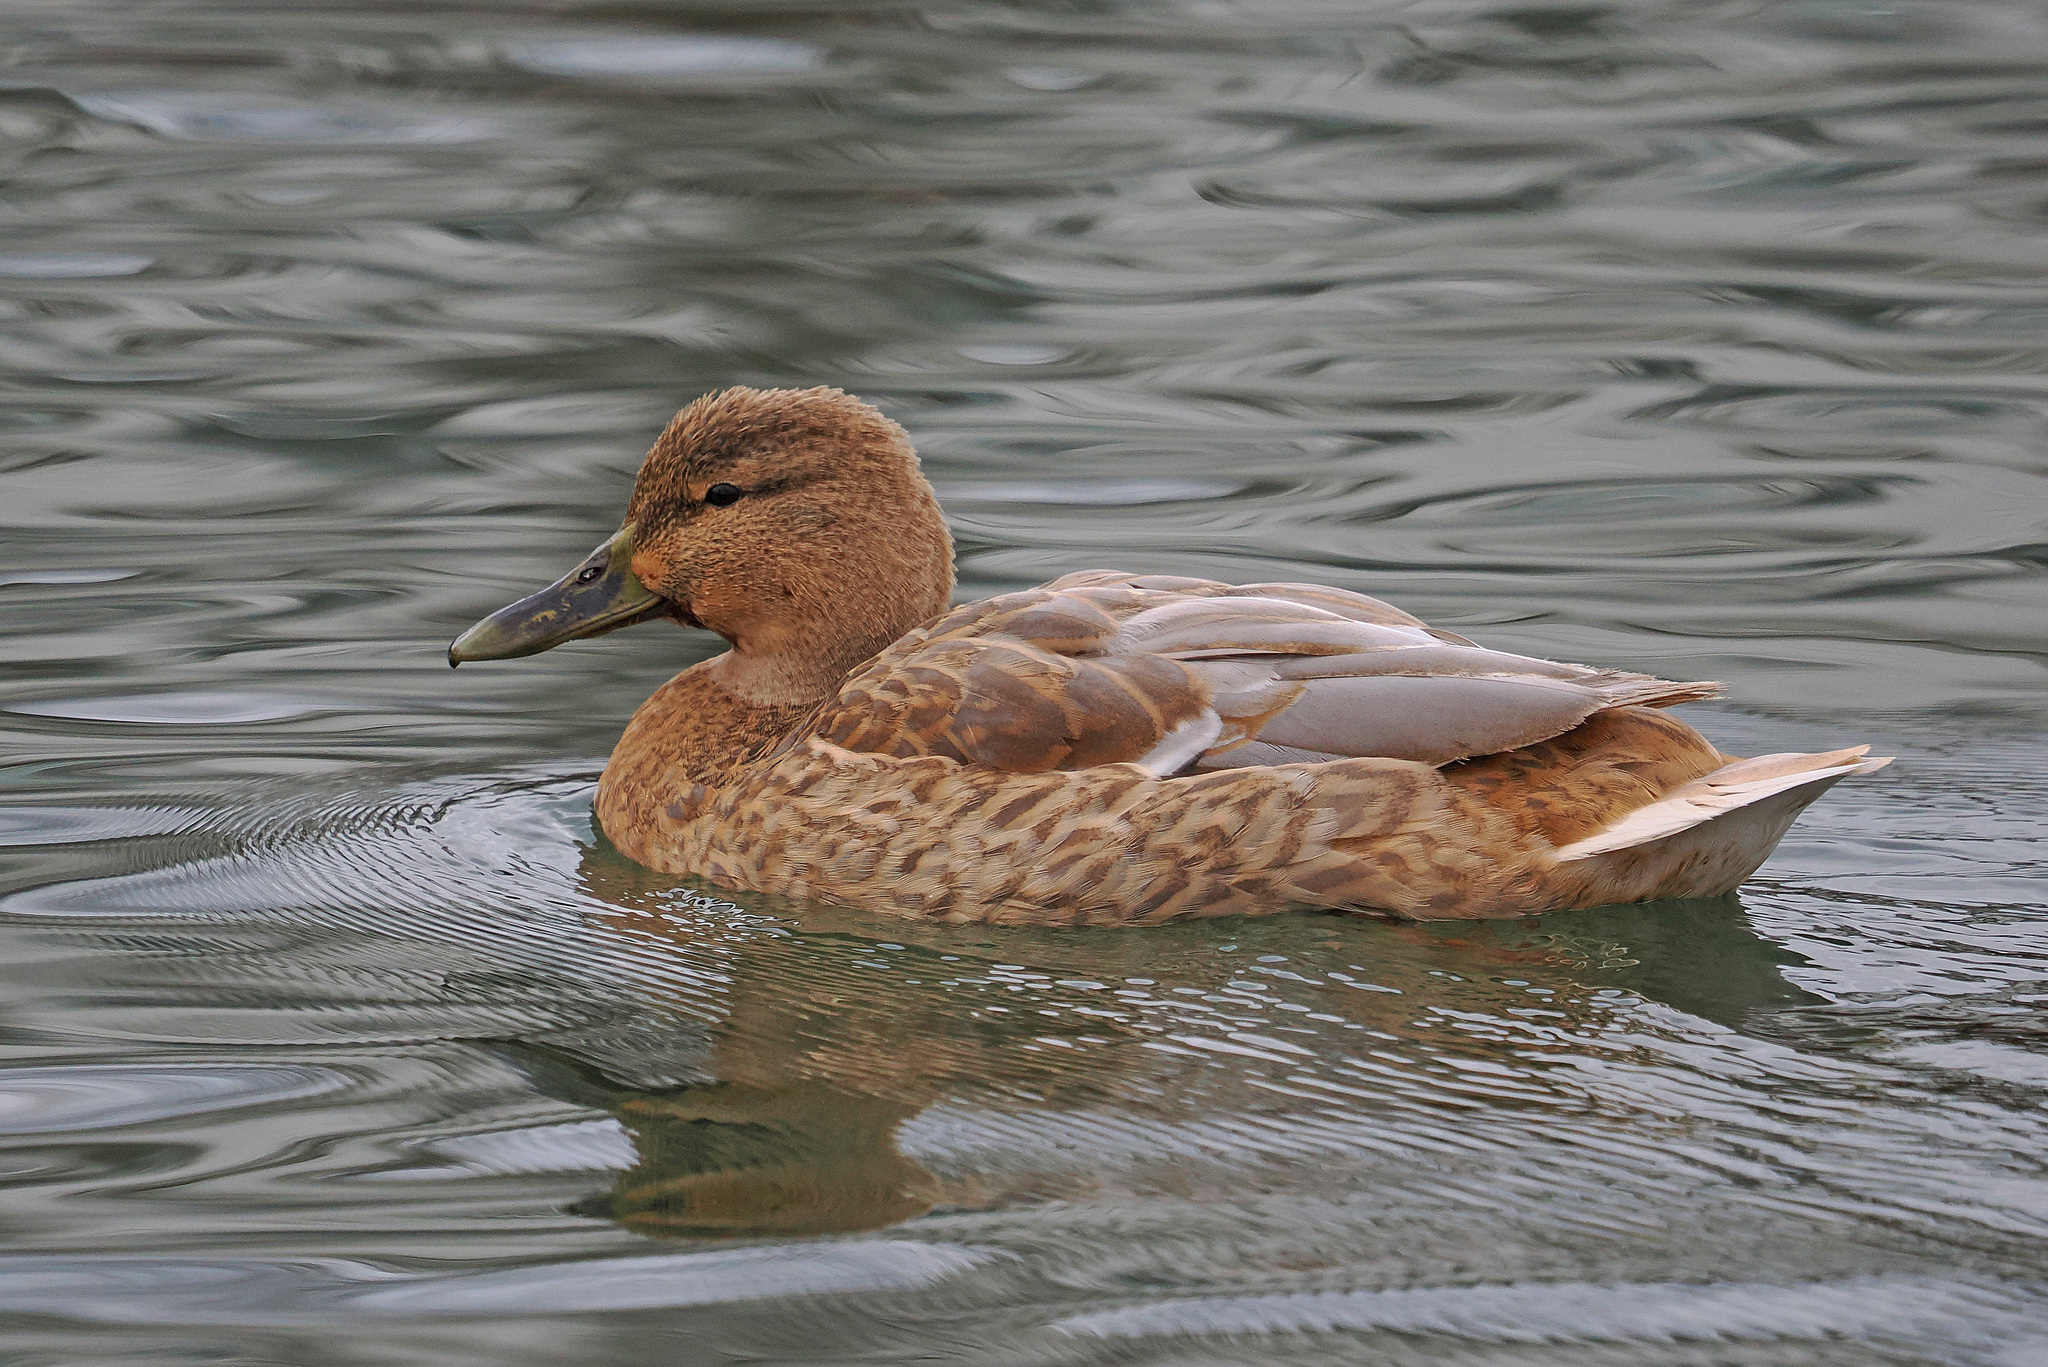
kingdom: Animalia
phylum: Chordata
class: Aves
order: Anseriformes
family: Anatidae
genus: Anas
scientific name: Anas platyrhynchos
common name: Mallard
